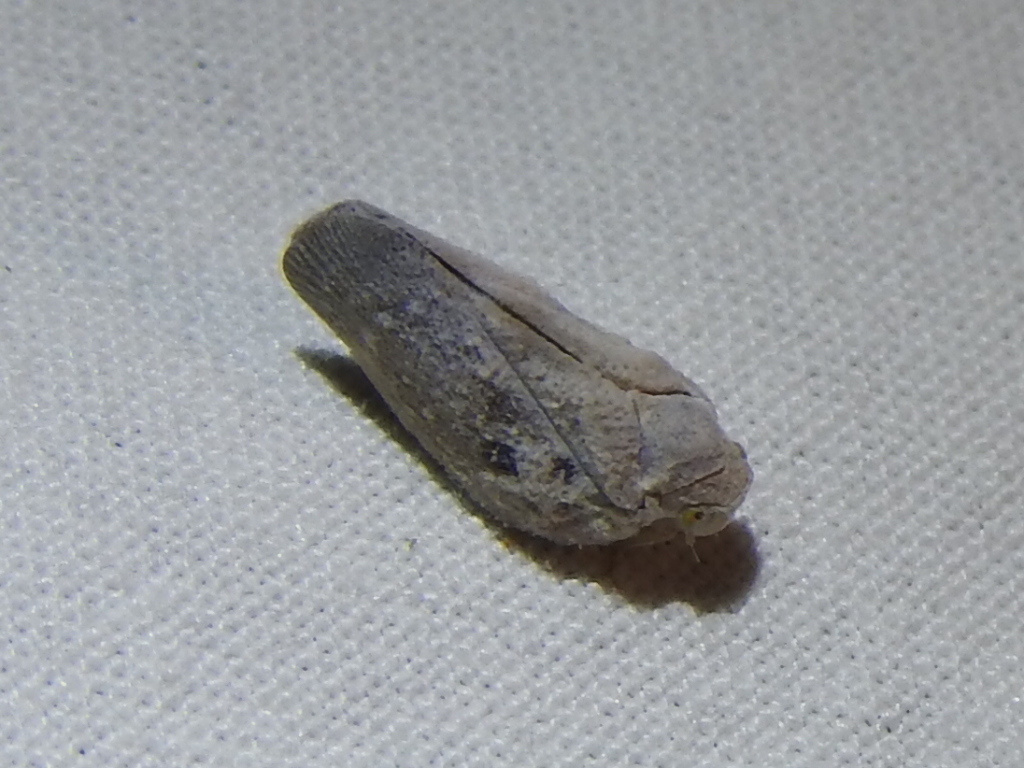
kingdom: Animalia
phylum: Arthropoda
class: Insecta
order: Hemiptera
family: Flatidae
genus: Metcalfa
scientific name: Metcalfa pruinosa
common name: Citrus flatid planthopper
